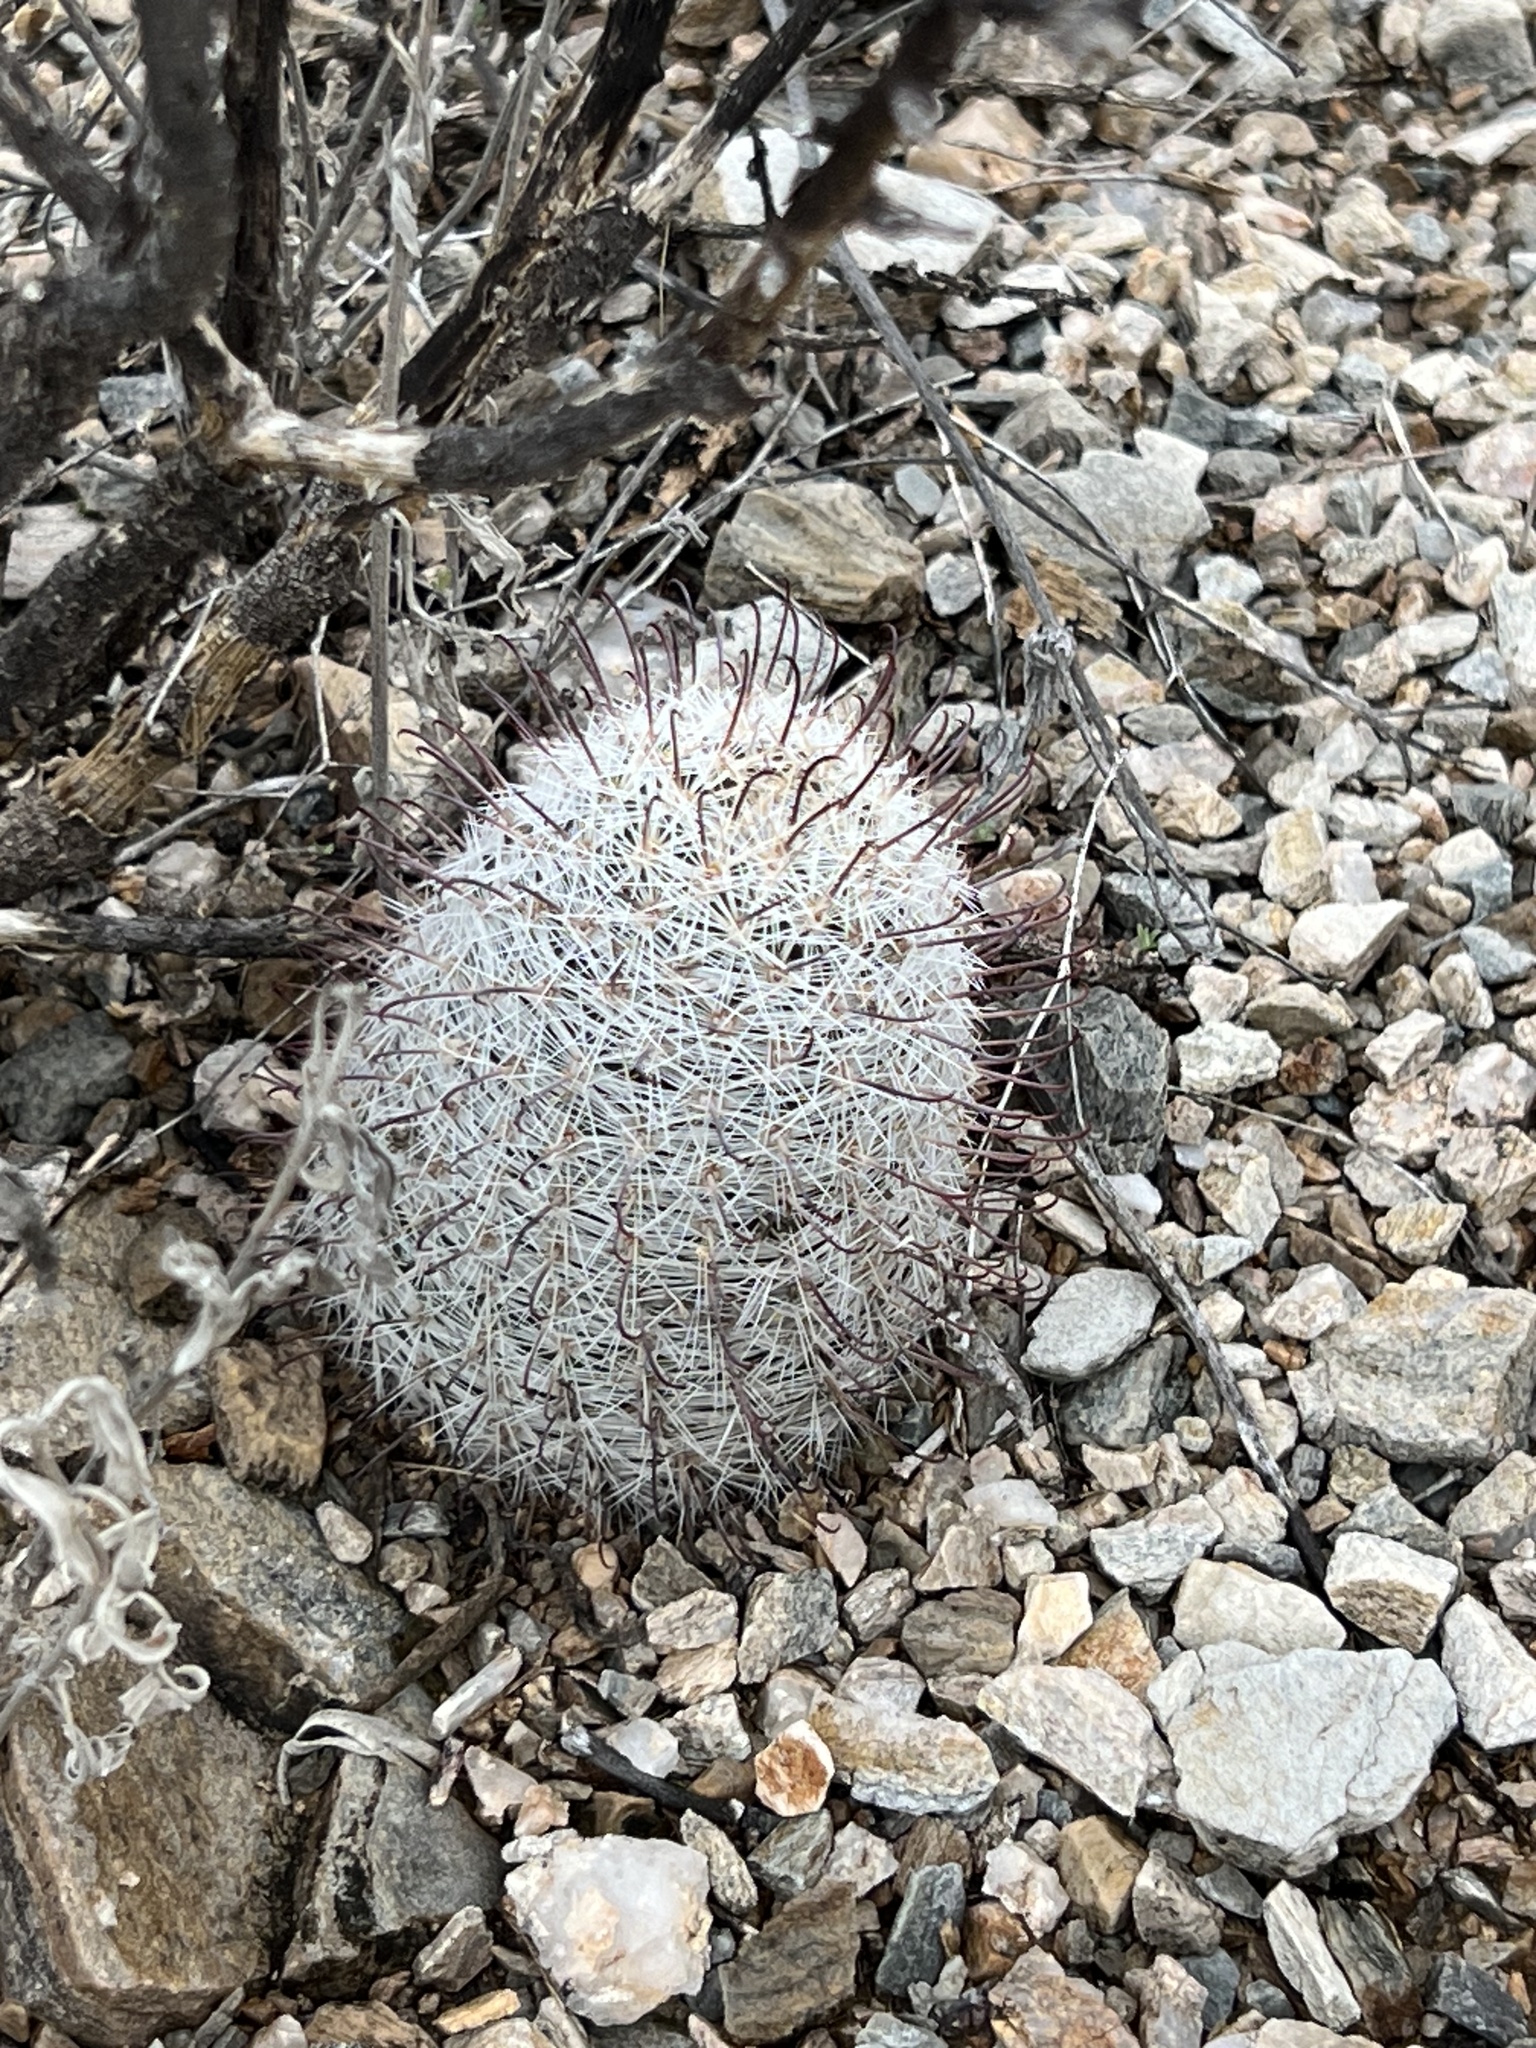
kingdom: Plantae
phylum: Tracheophyta
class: Magnoliopsida
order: Caryophyllales
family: Cactaceae
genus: Cochemiea
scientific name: Cochemiea grahamii
